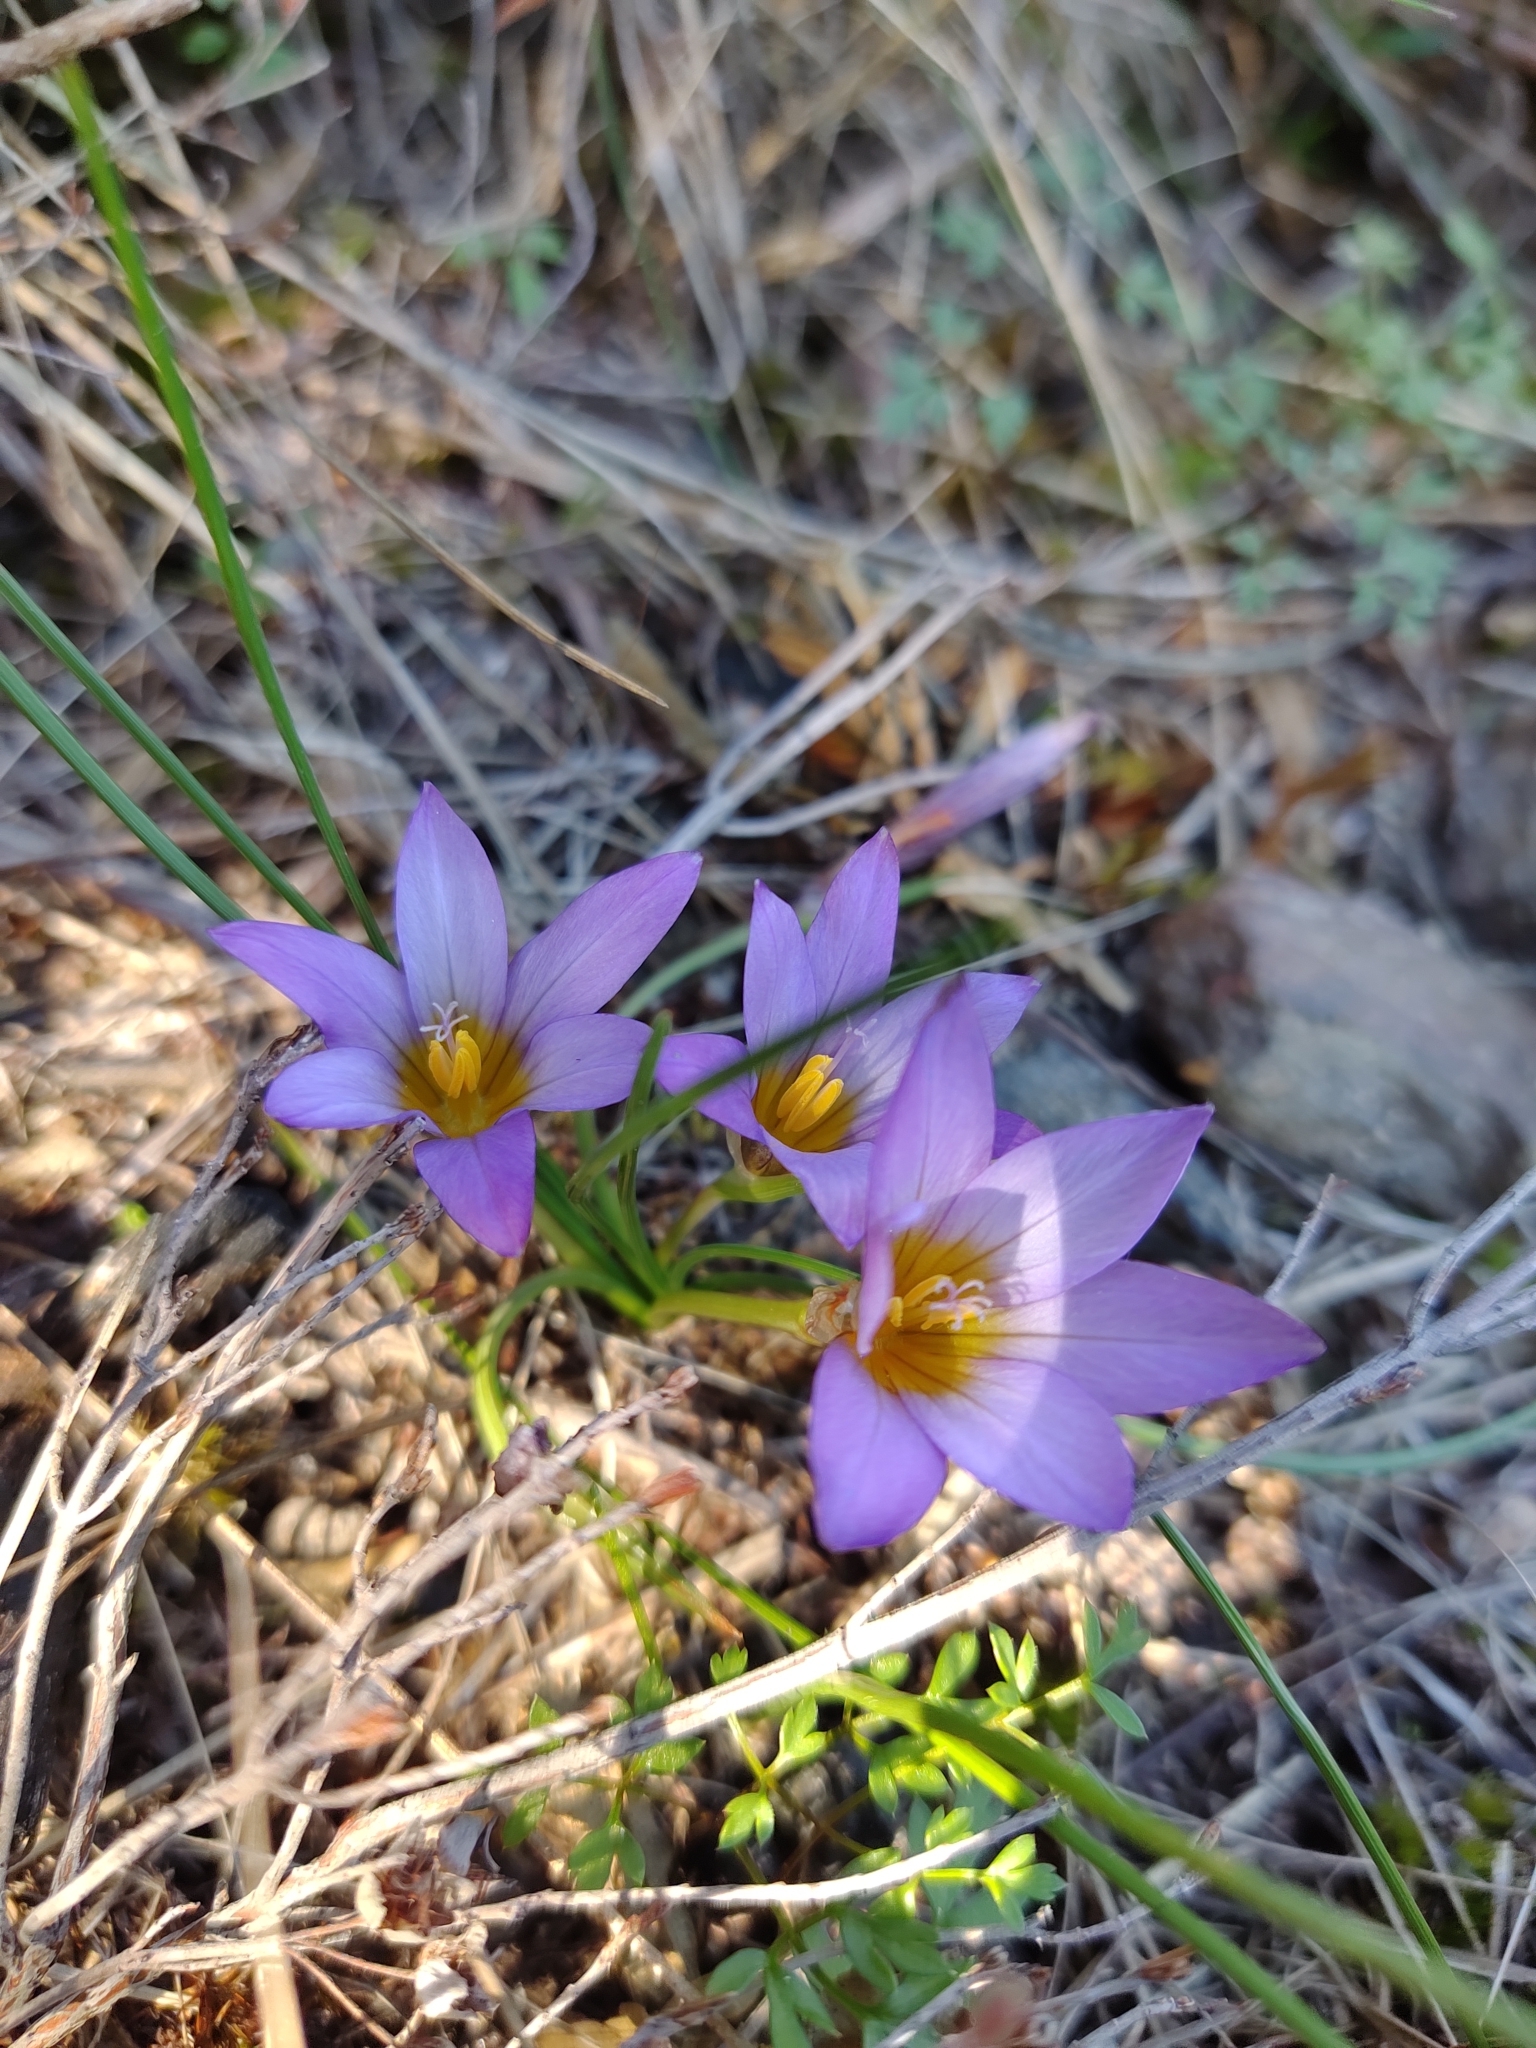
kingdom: Plantae
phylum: Tracheophyta
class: Liliopsida
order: Asparagales
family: Iridaceae
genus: Romulea
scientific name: Romulea bulbocodium
